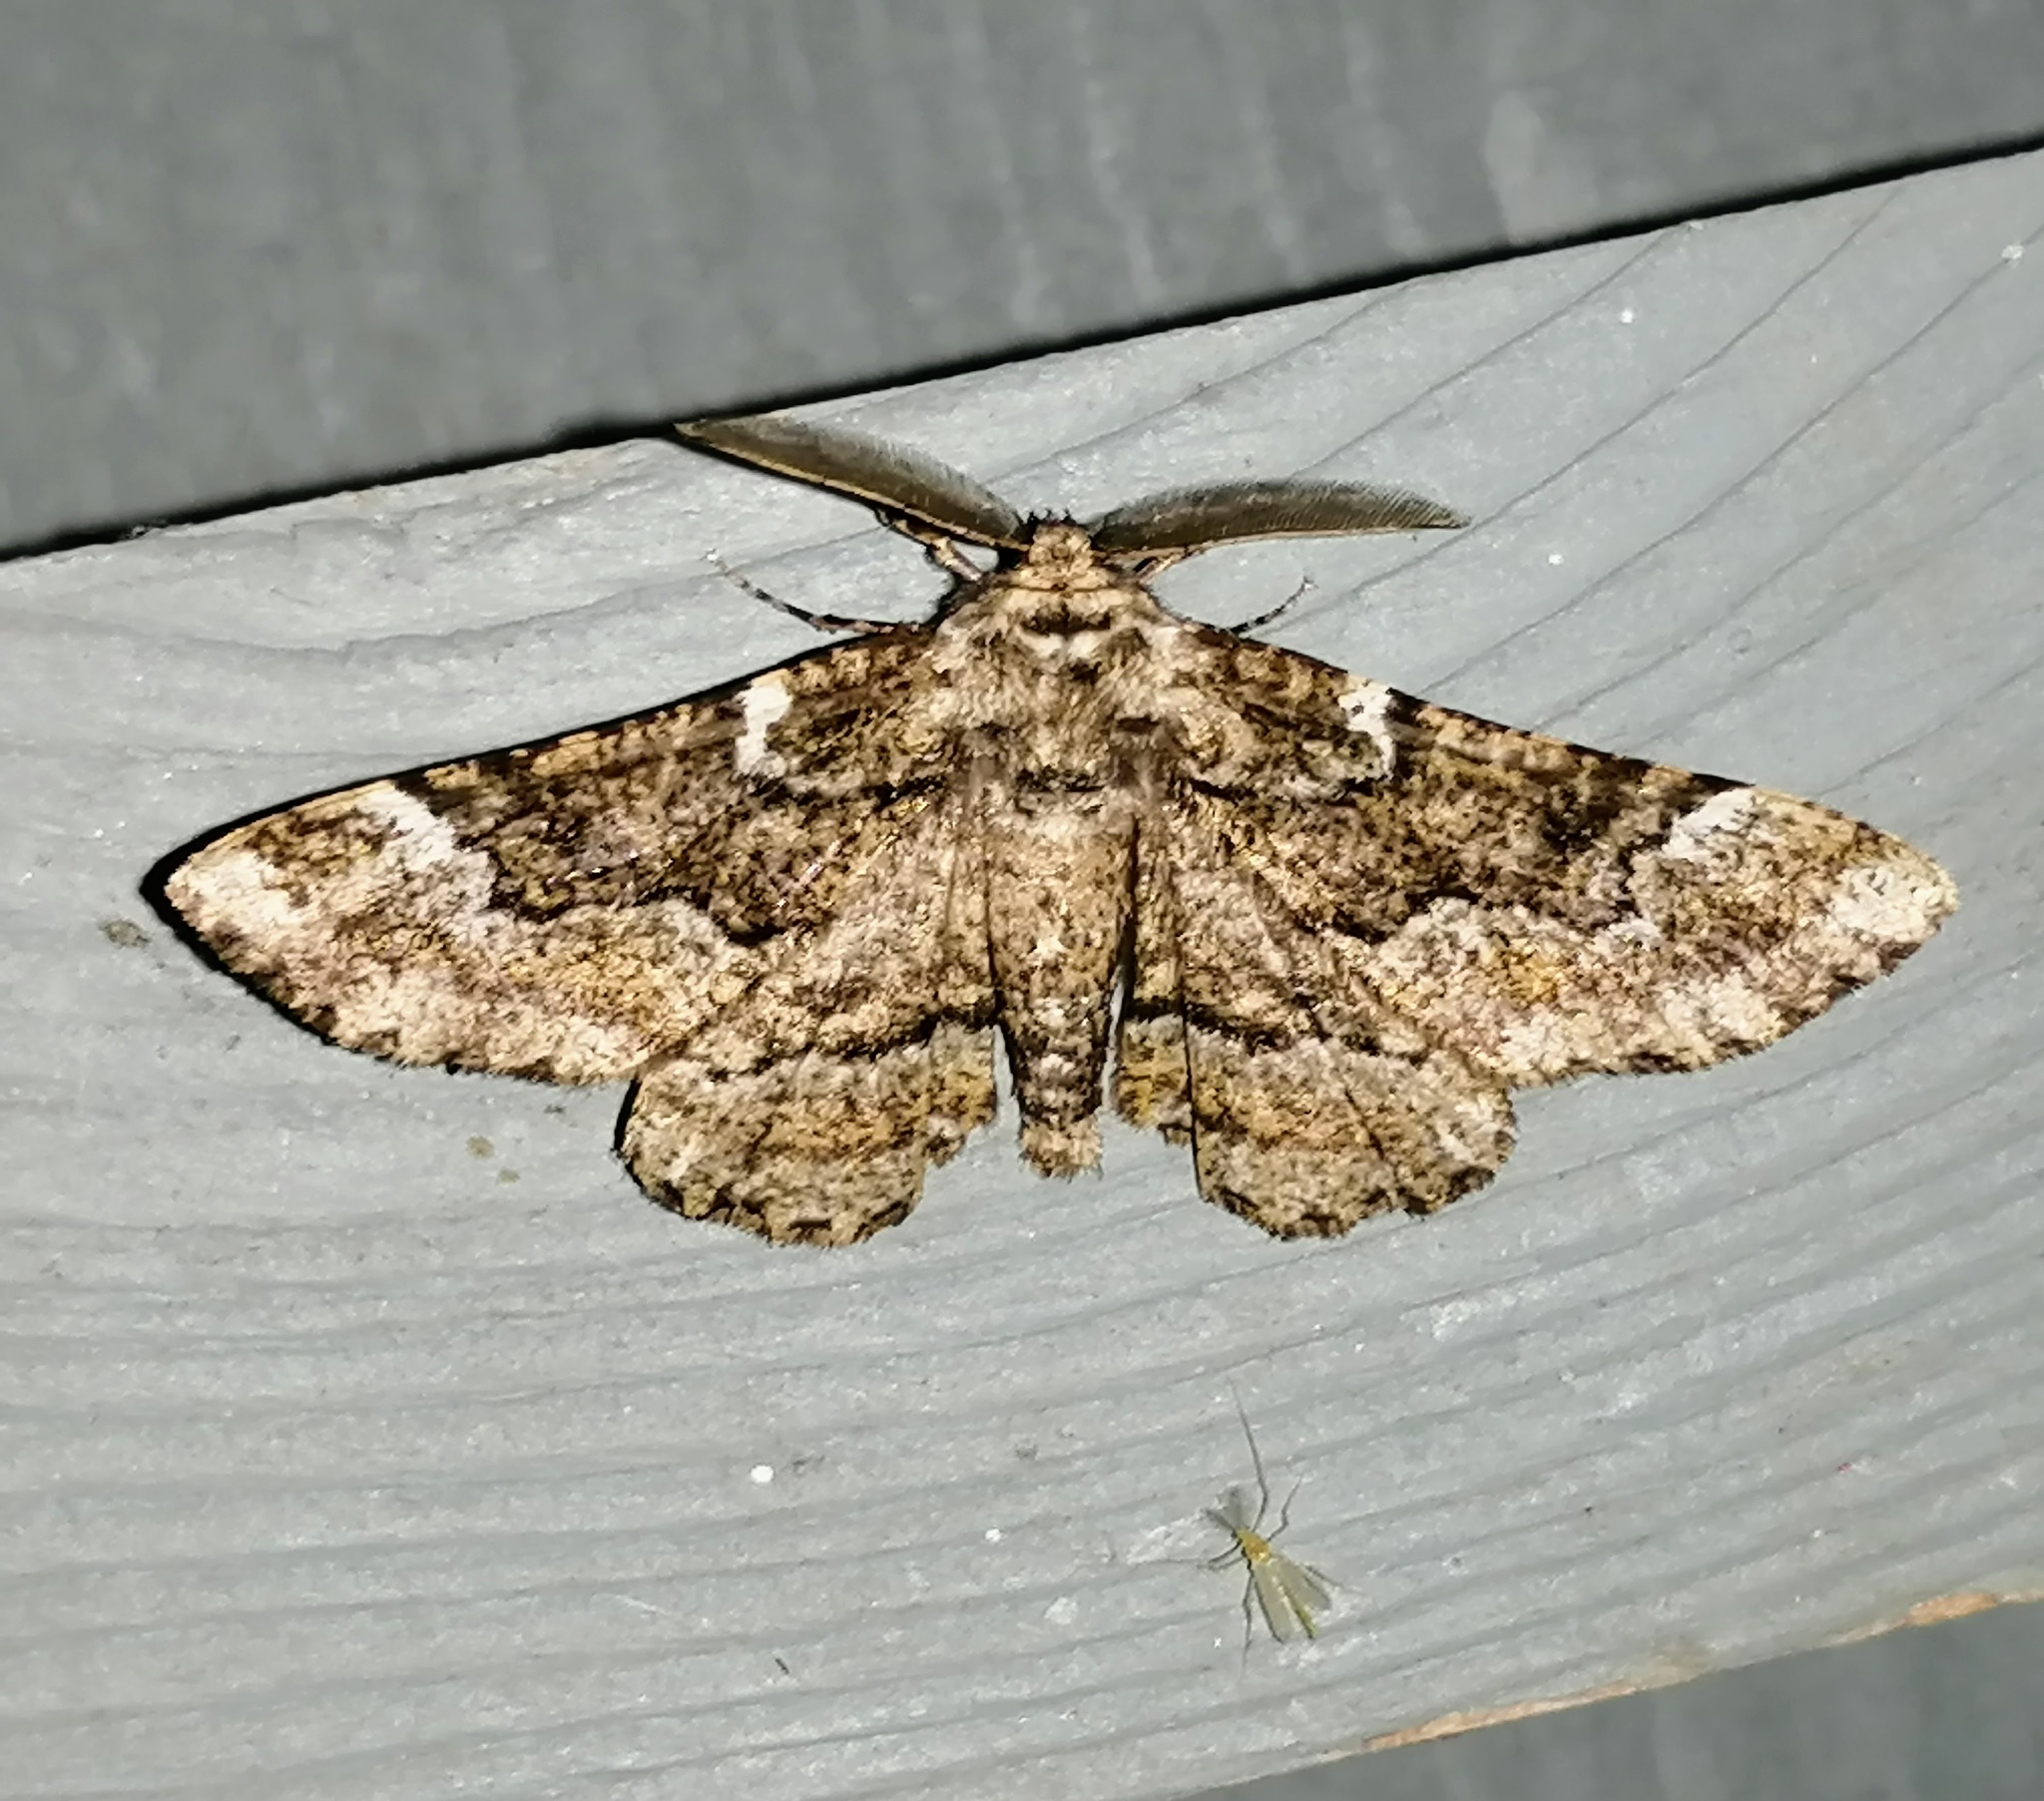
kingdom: Animalia
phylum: Arthropoda
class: Insecta
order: Lepidoptera
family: Geometridae
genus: Phaeoura
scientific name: Phaeoura quernaria
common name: Oak beauty
